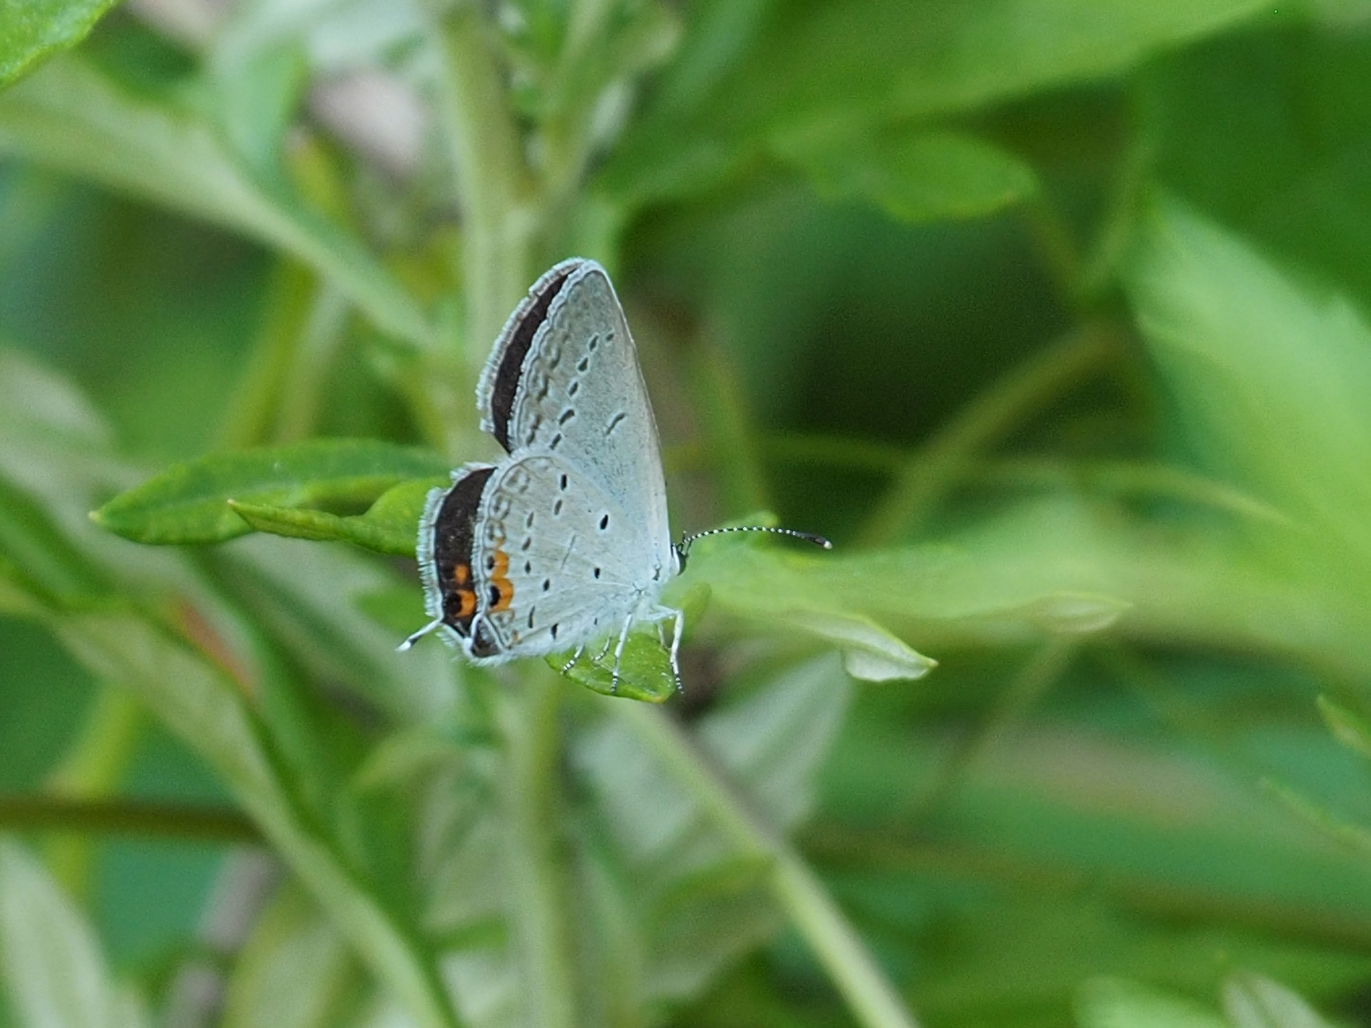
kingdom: Animalia
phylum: Arthropoda
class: Insecta
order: Lepidoptera
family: Lycaenidae
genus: Elkalyce
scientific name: Elkalyce comyntas
